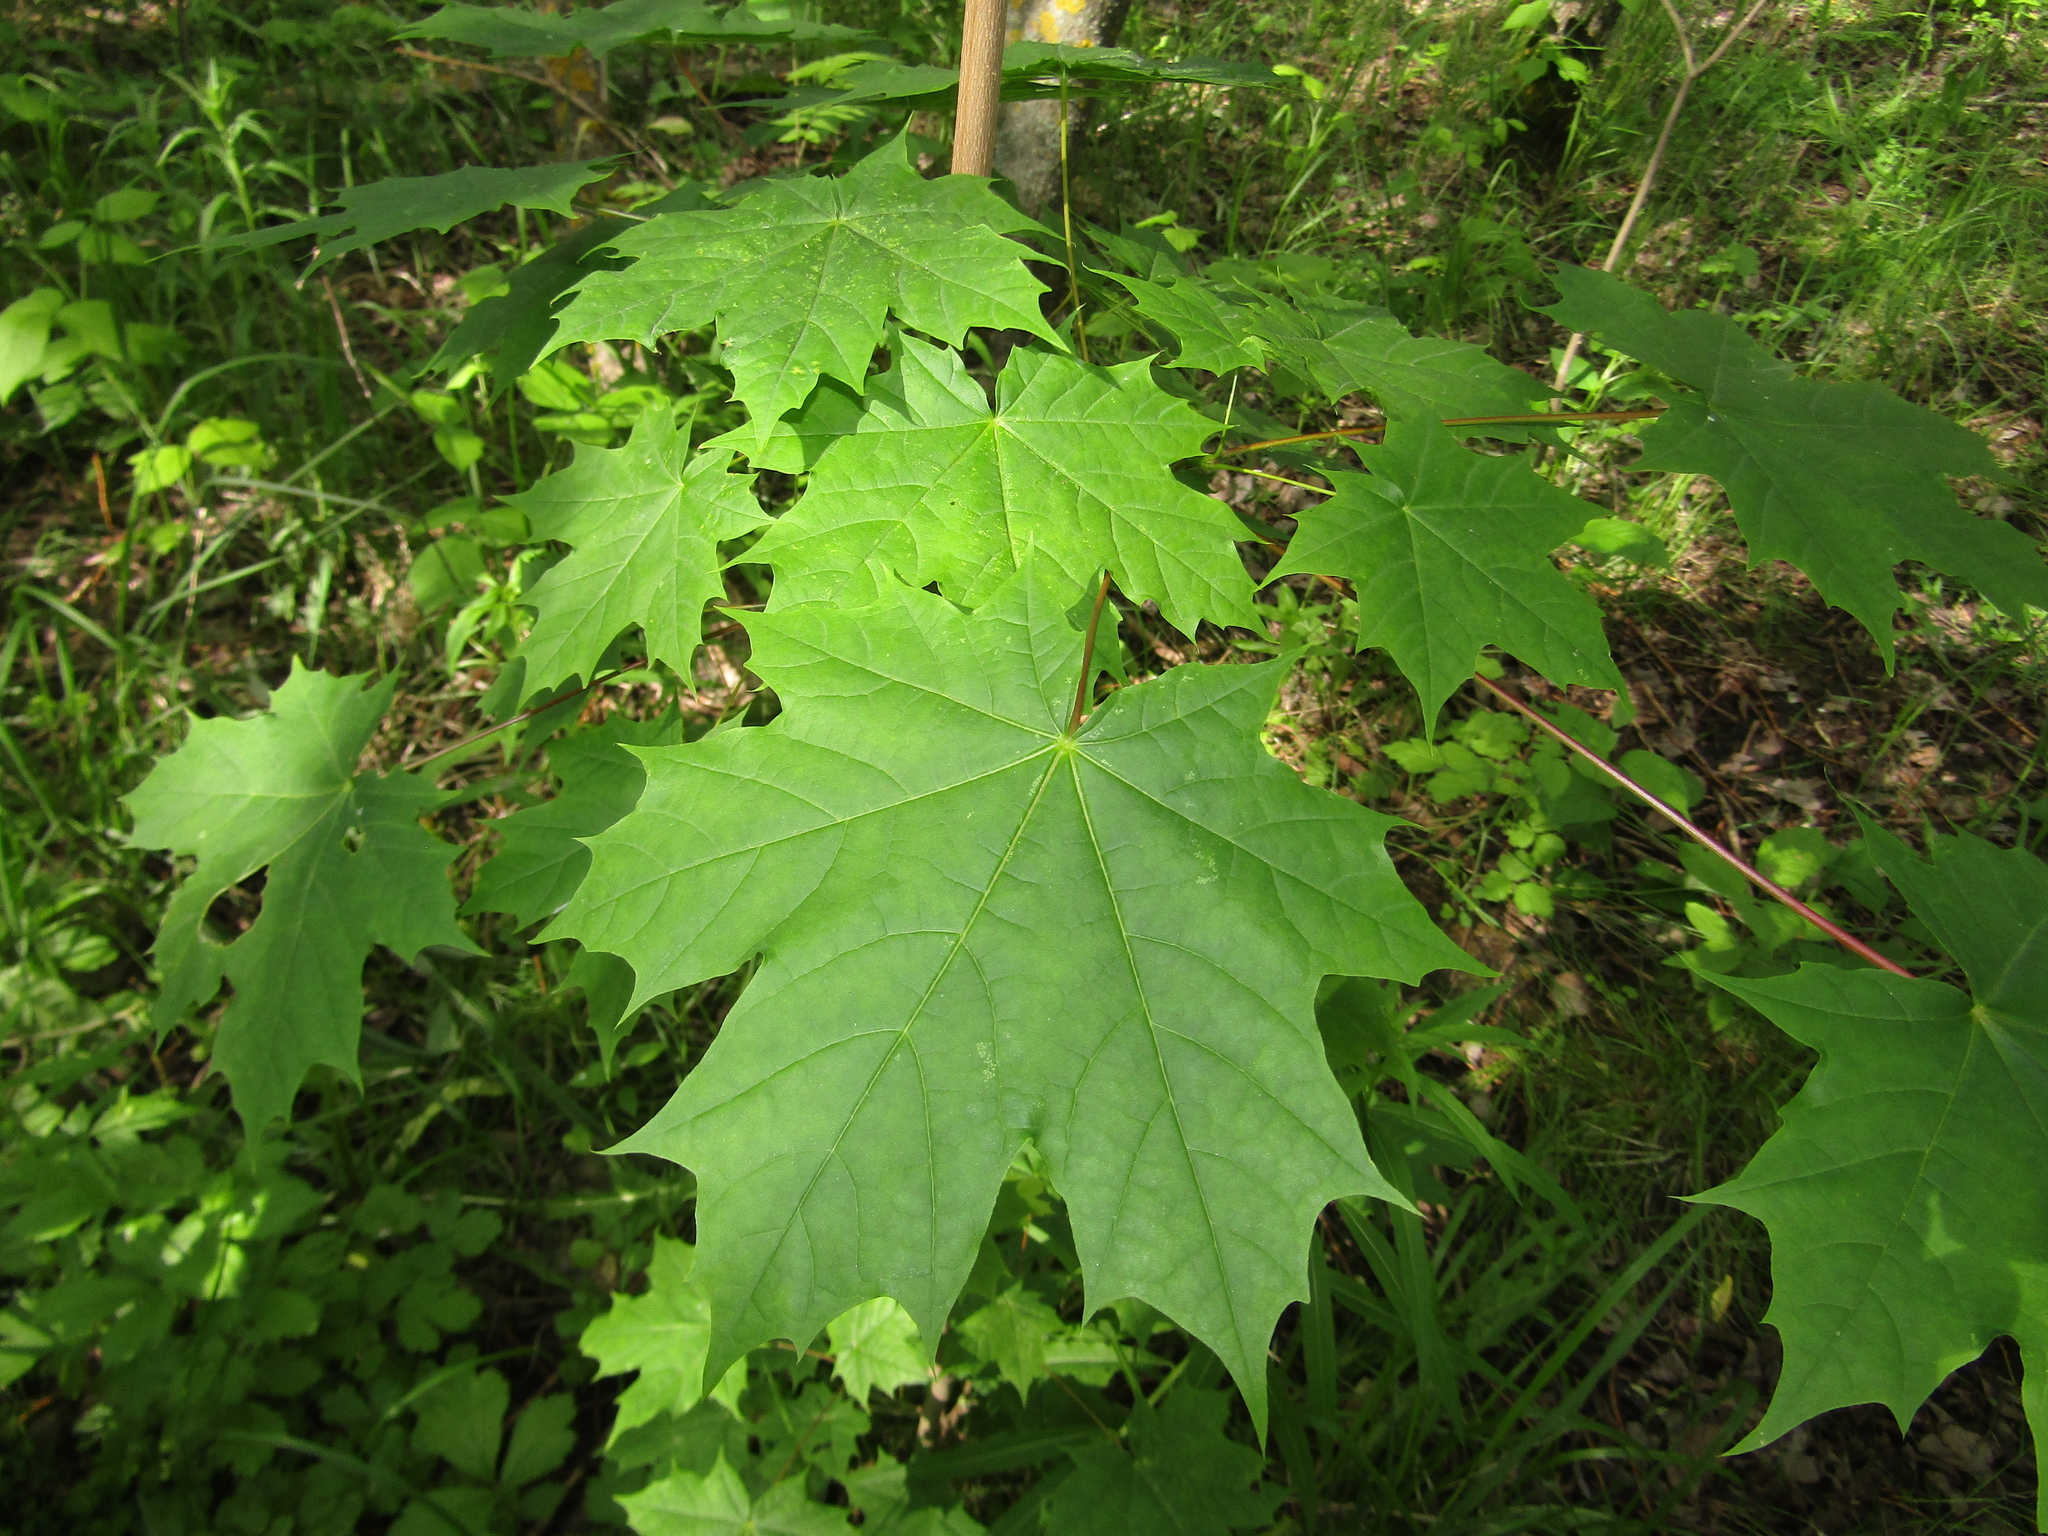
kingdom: Plantae
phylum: Tracheophyta
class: Magnoliopsida
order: Sapindales
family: Sapindaceae
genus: Acer
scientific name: Acer platanoides
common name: Norway maple
